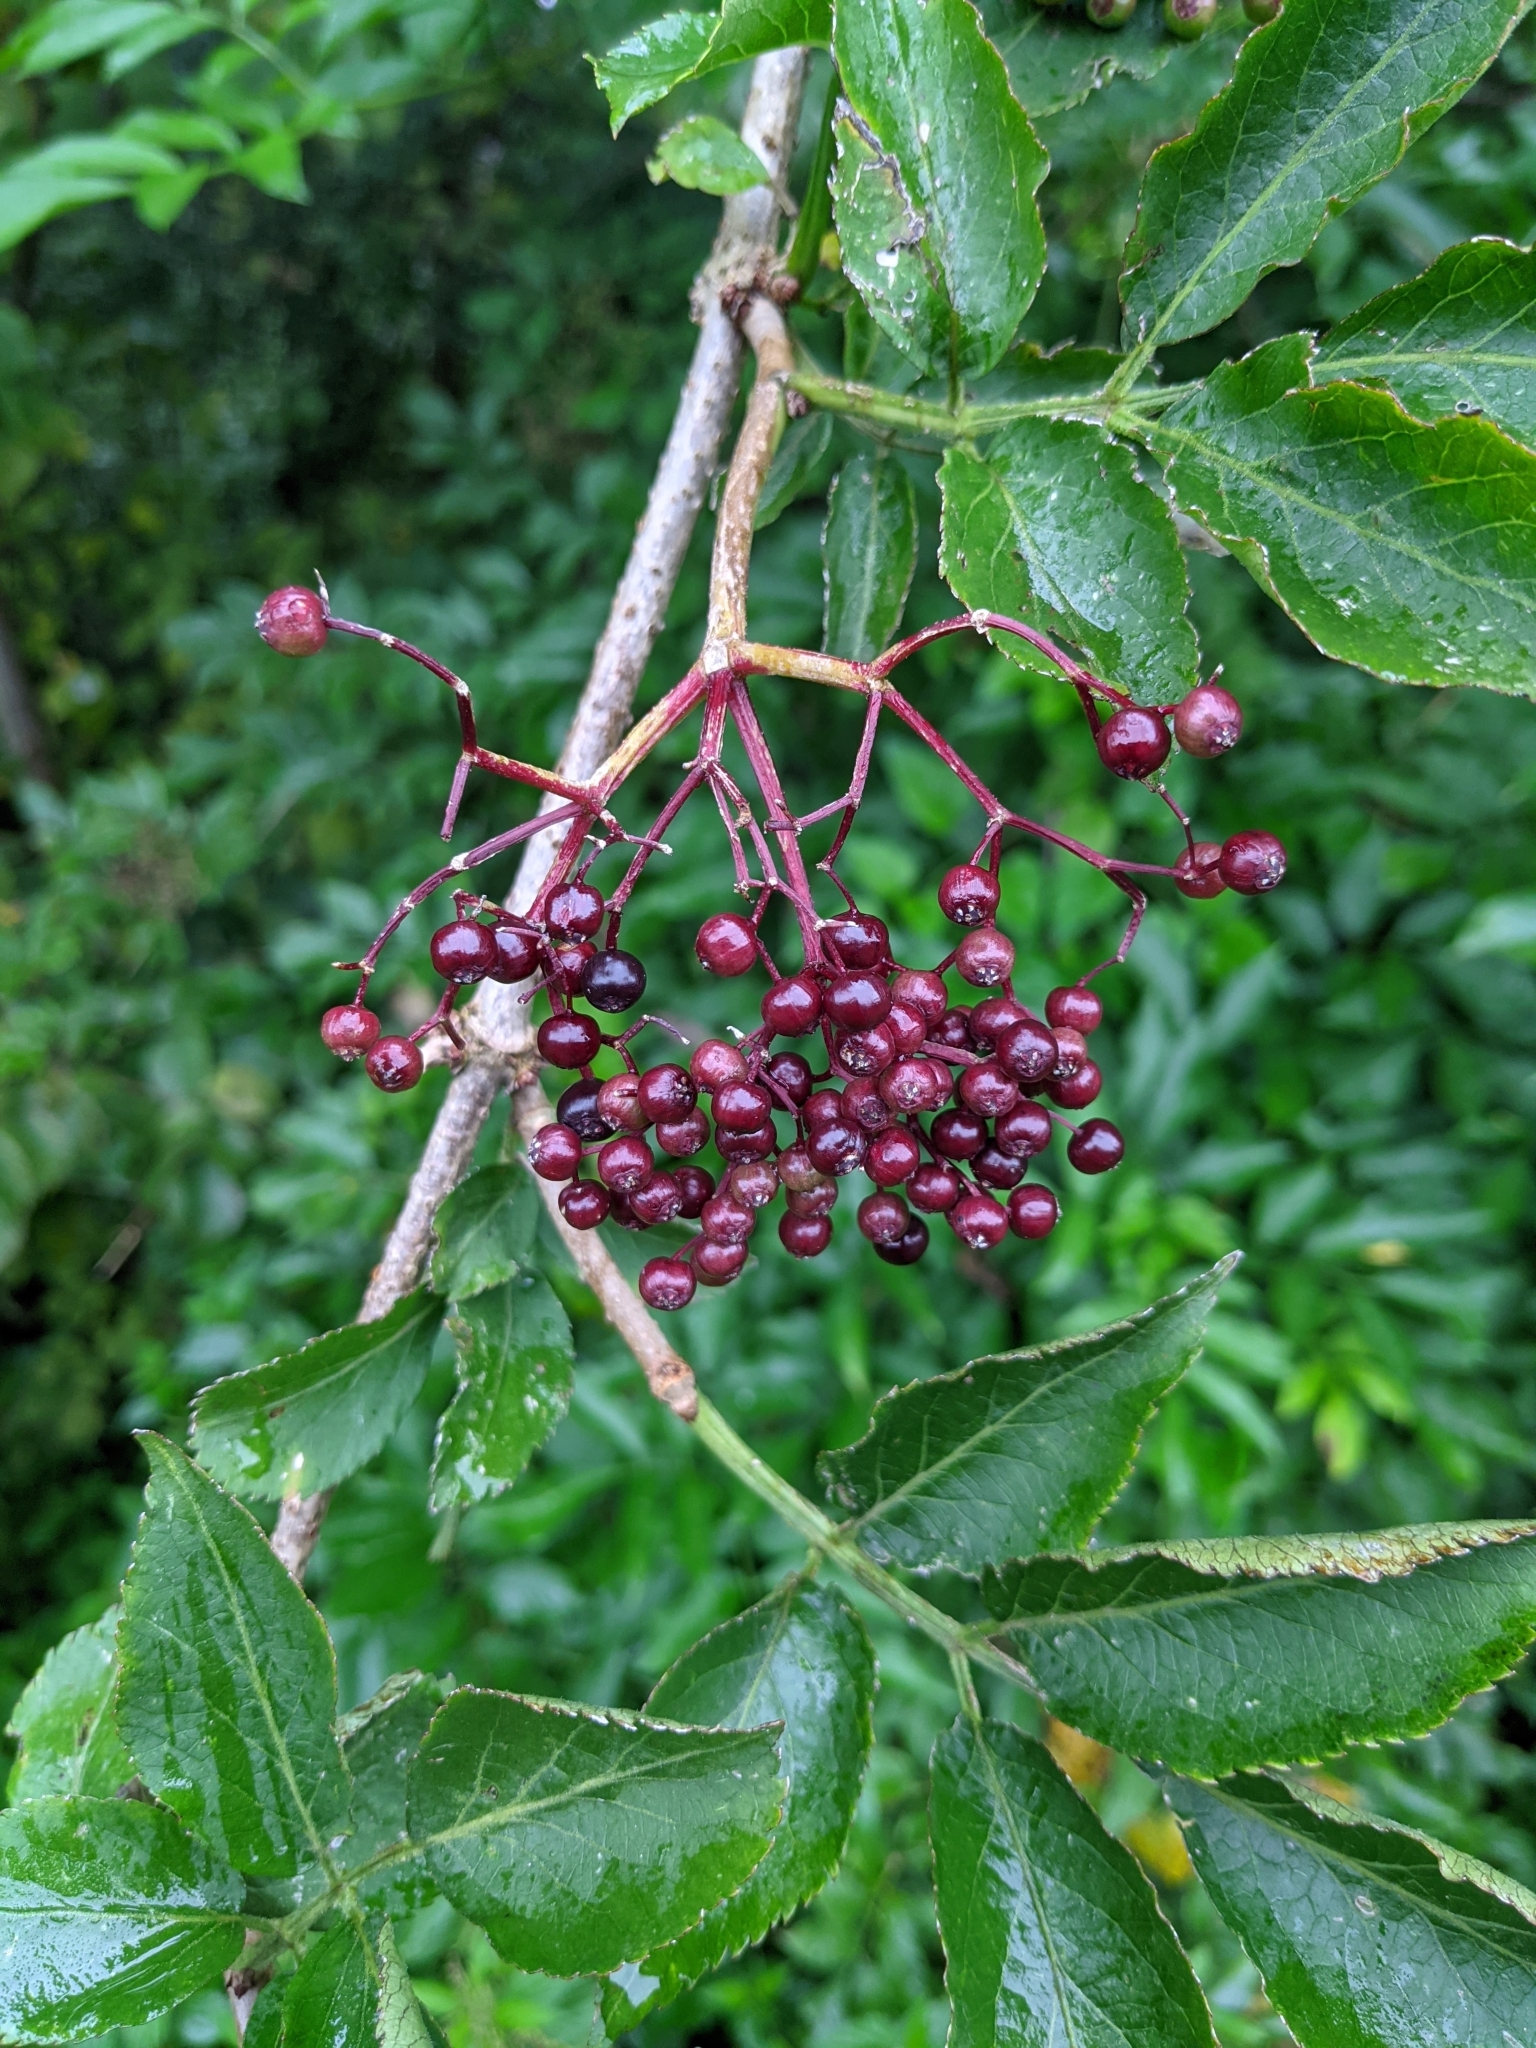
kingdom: Plantae
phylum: Tracheophyta
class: Magnoliopsida
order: Dipsacales
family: Viburnaceae
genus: Sambucus
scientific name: Sambucus nigra
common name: Elder
